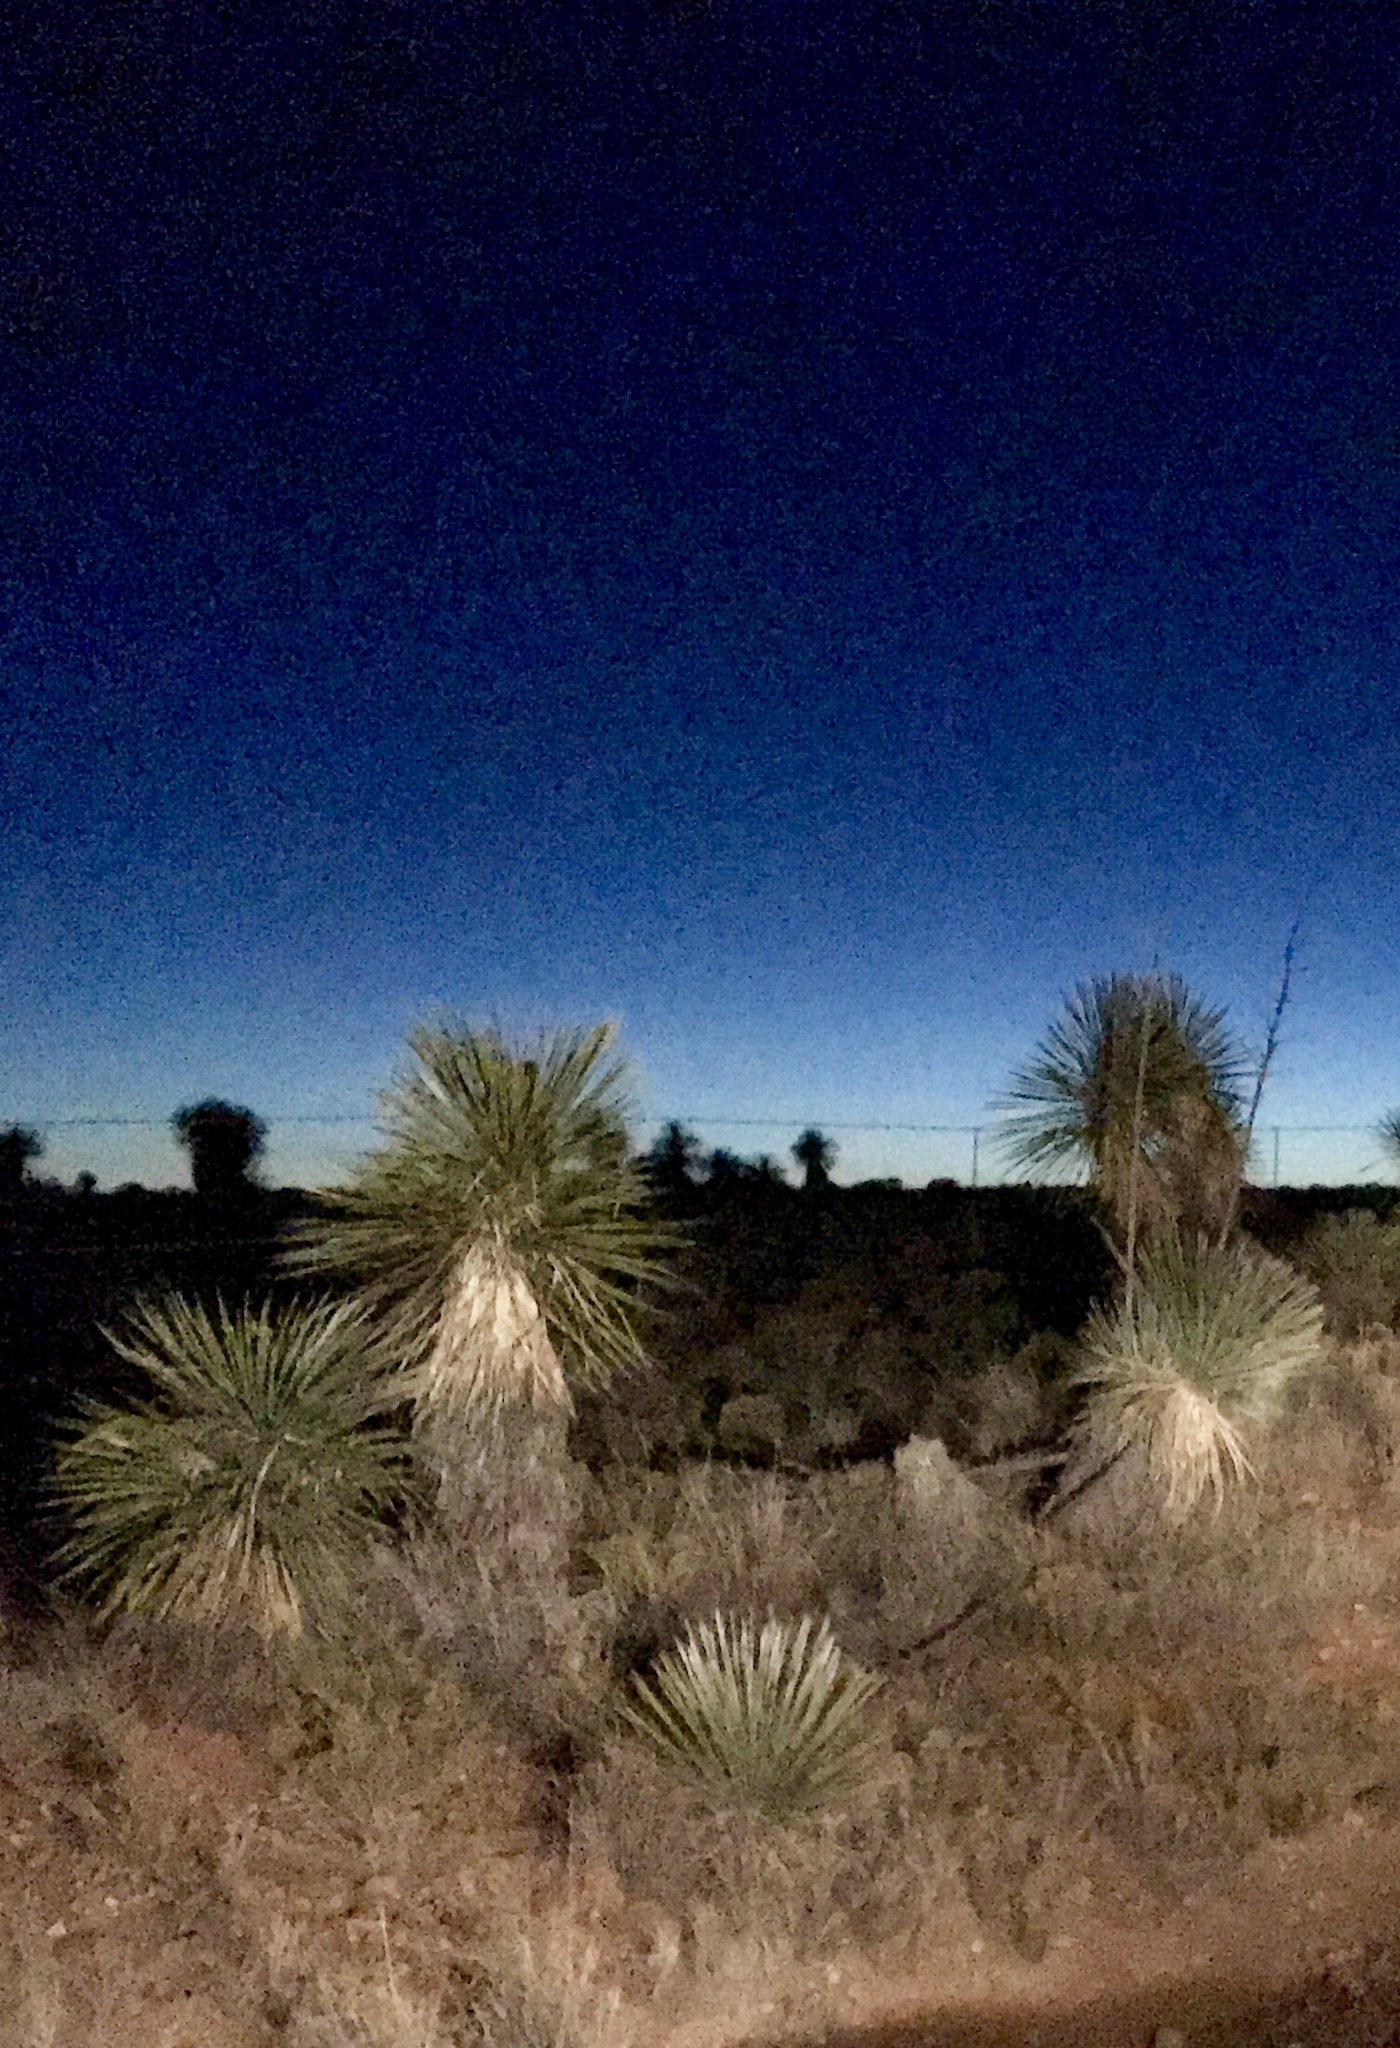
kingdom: Plantae
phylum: Tracheophyta
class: Liliopsida
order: Asparagales
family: Asparagaceae
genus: Yucca
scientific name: Yucca elata
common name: Palmella
